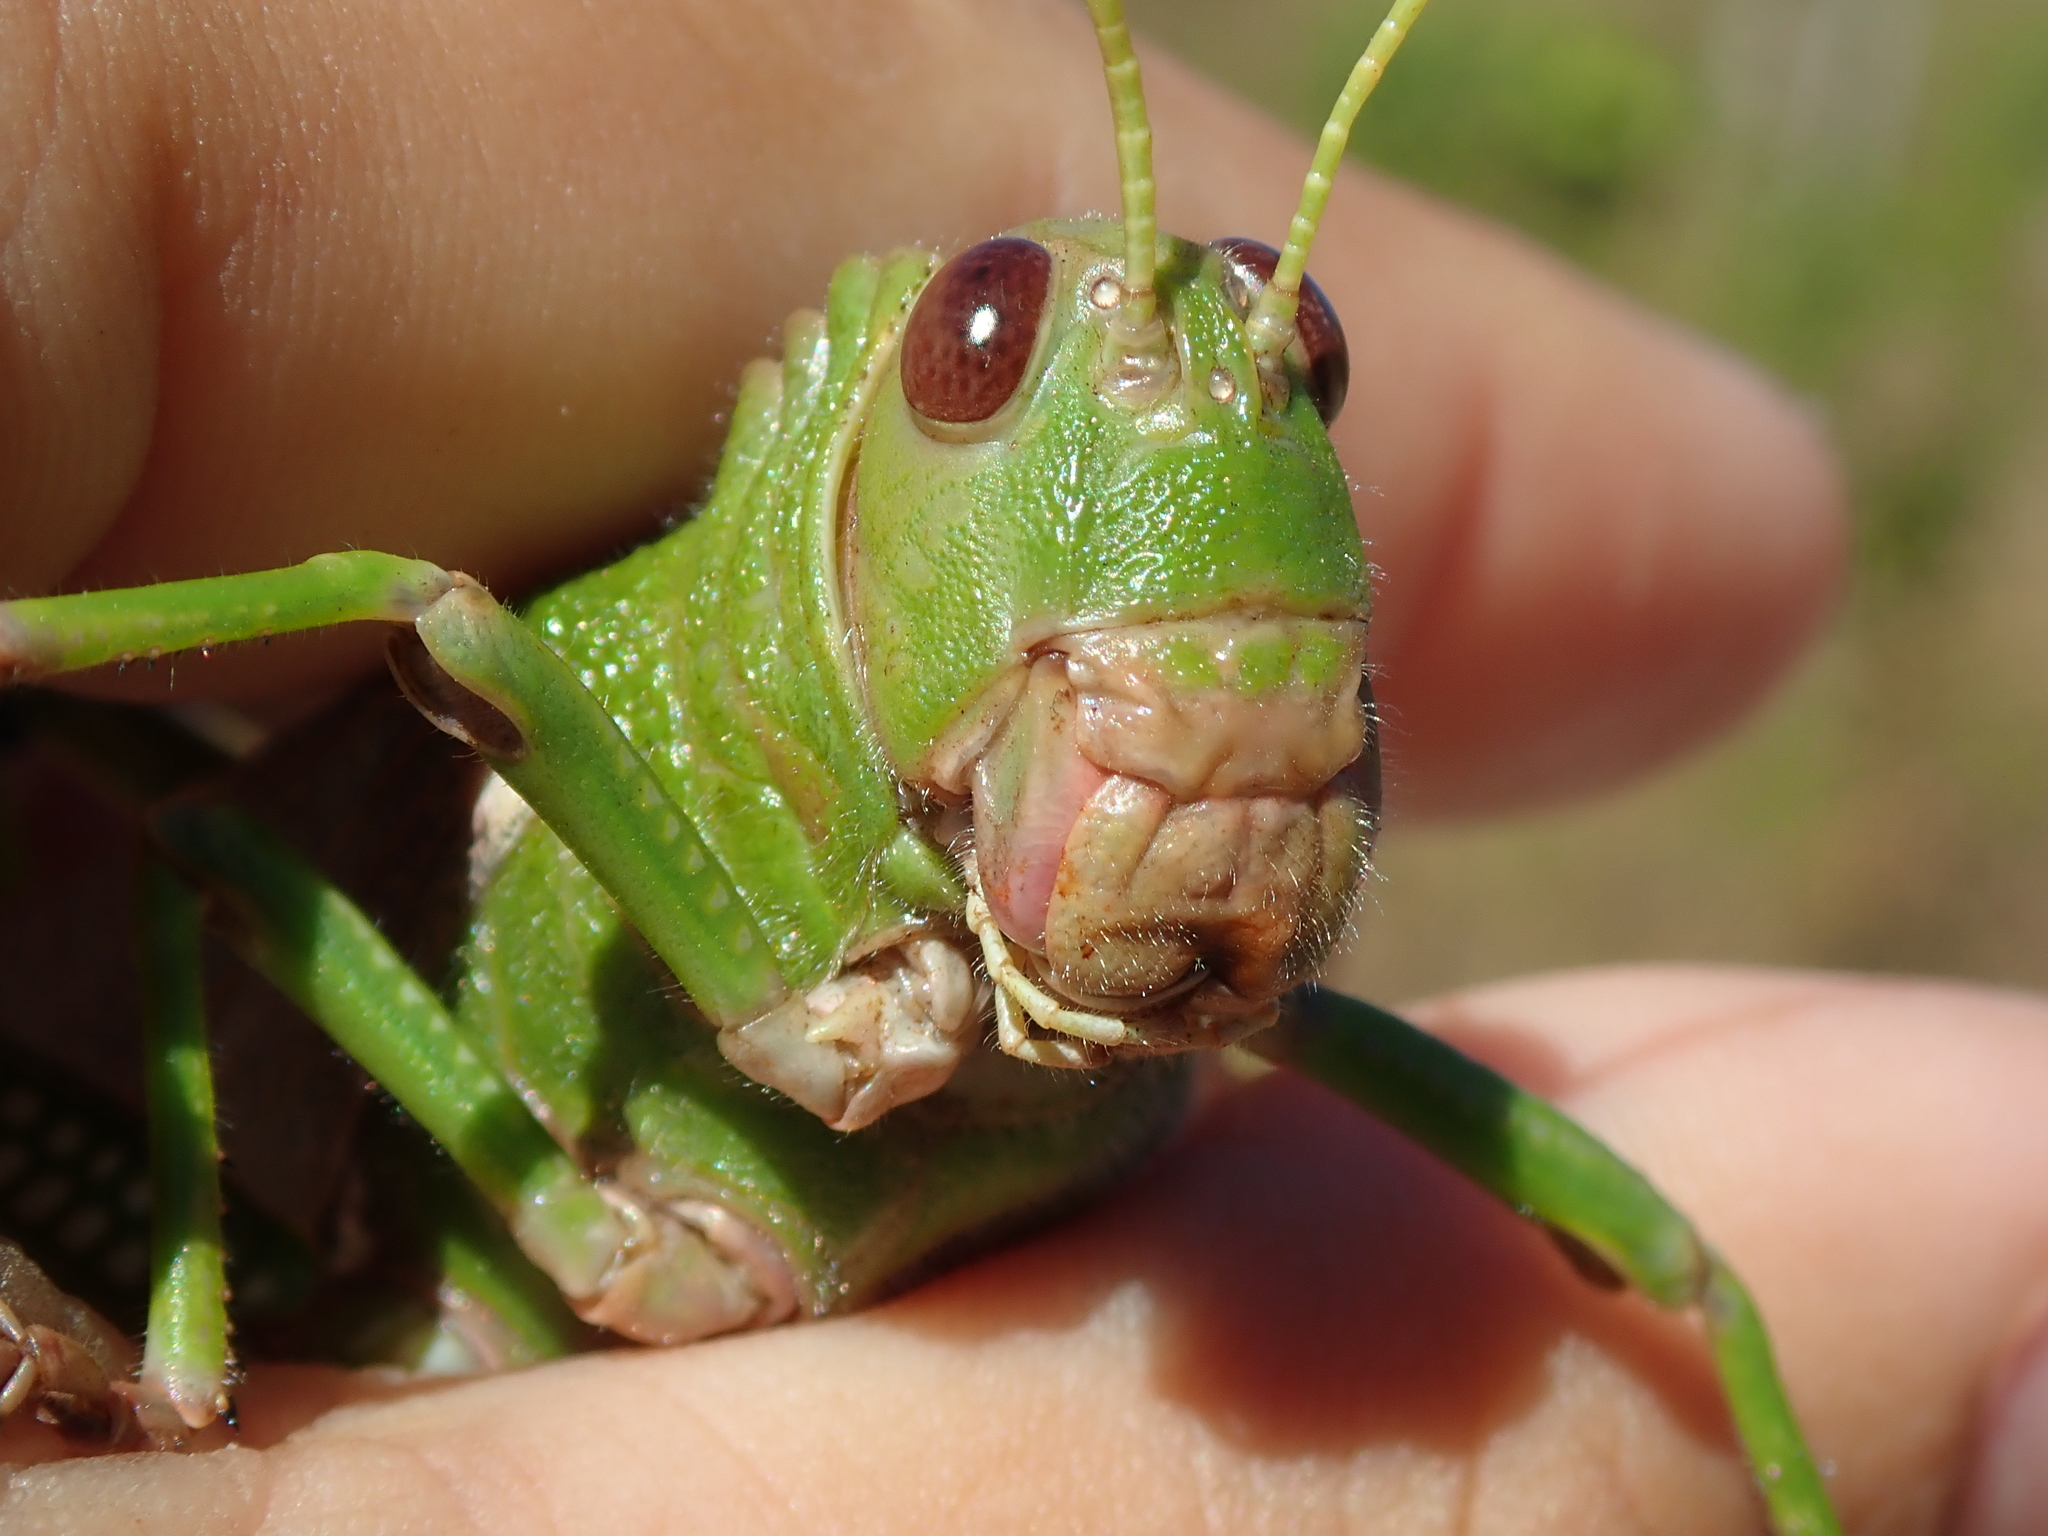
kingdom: Animalia
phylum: Arthropoda
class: Insecta
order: Orthoptera
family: Romaleidae
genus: Tropidacris
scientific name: Tropidacris collaris
